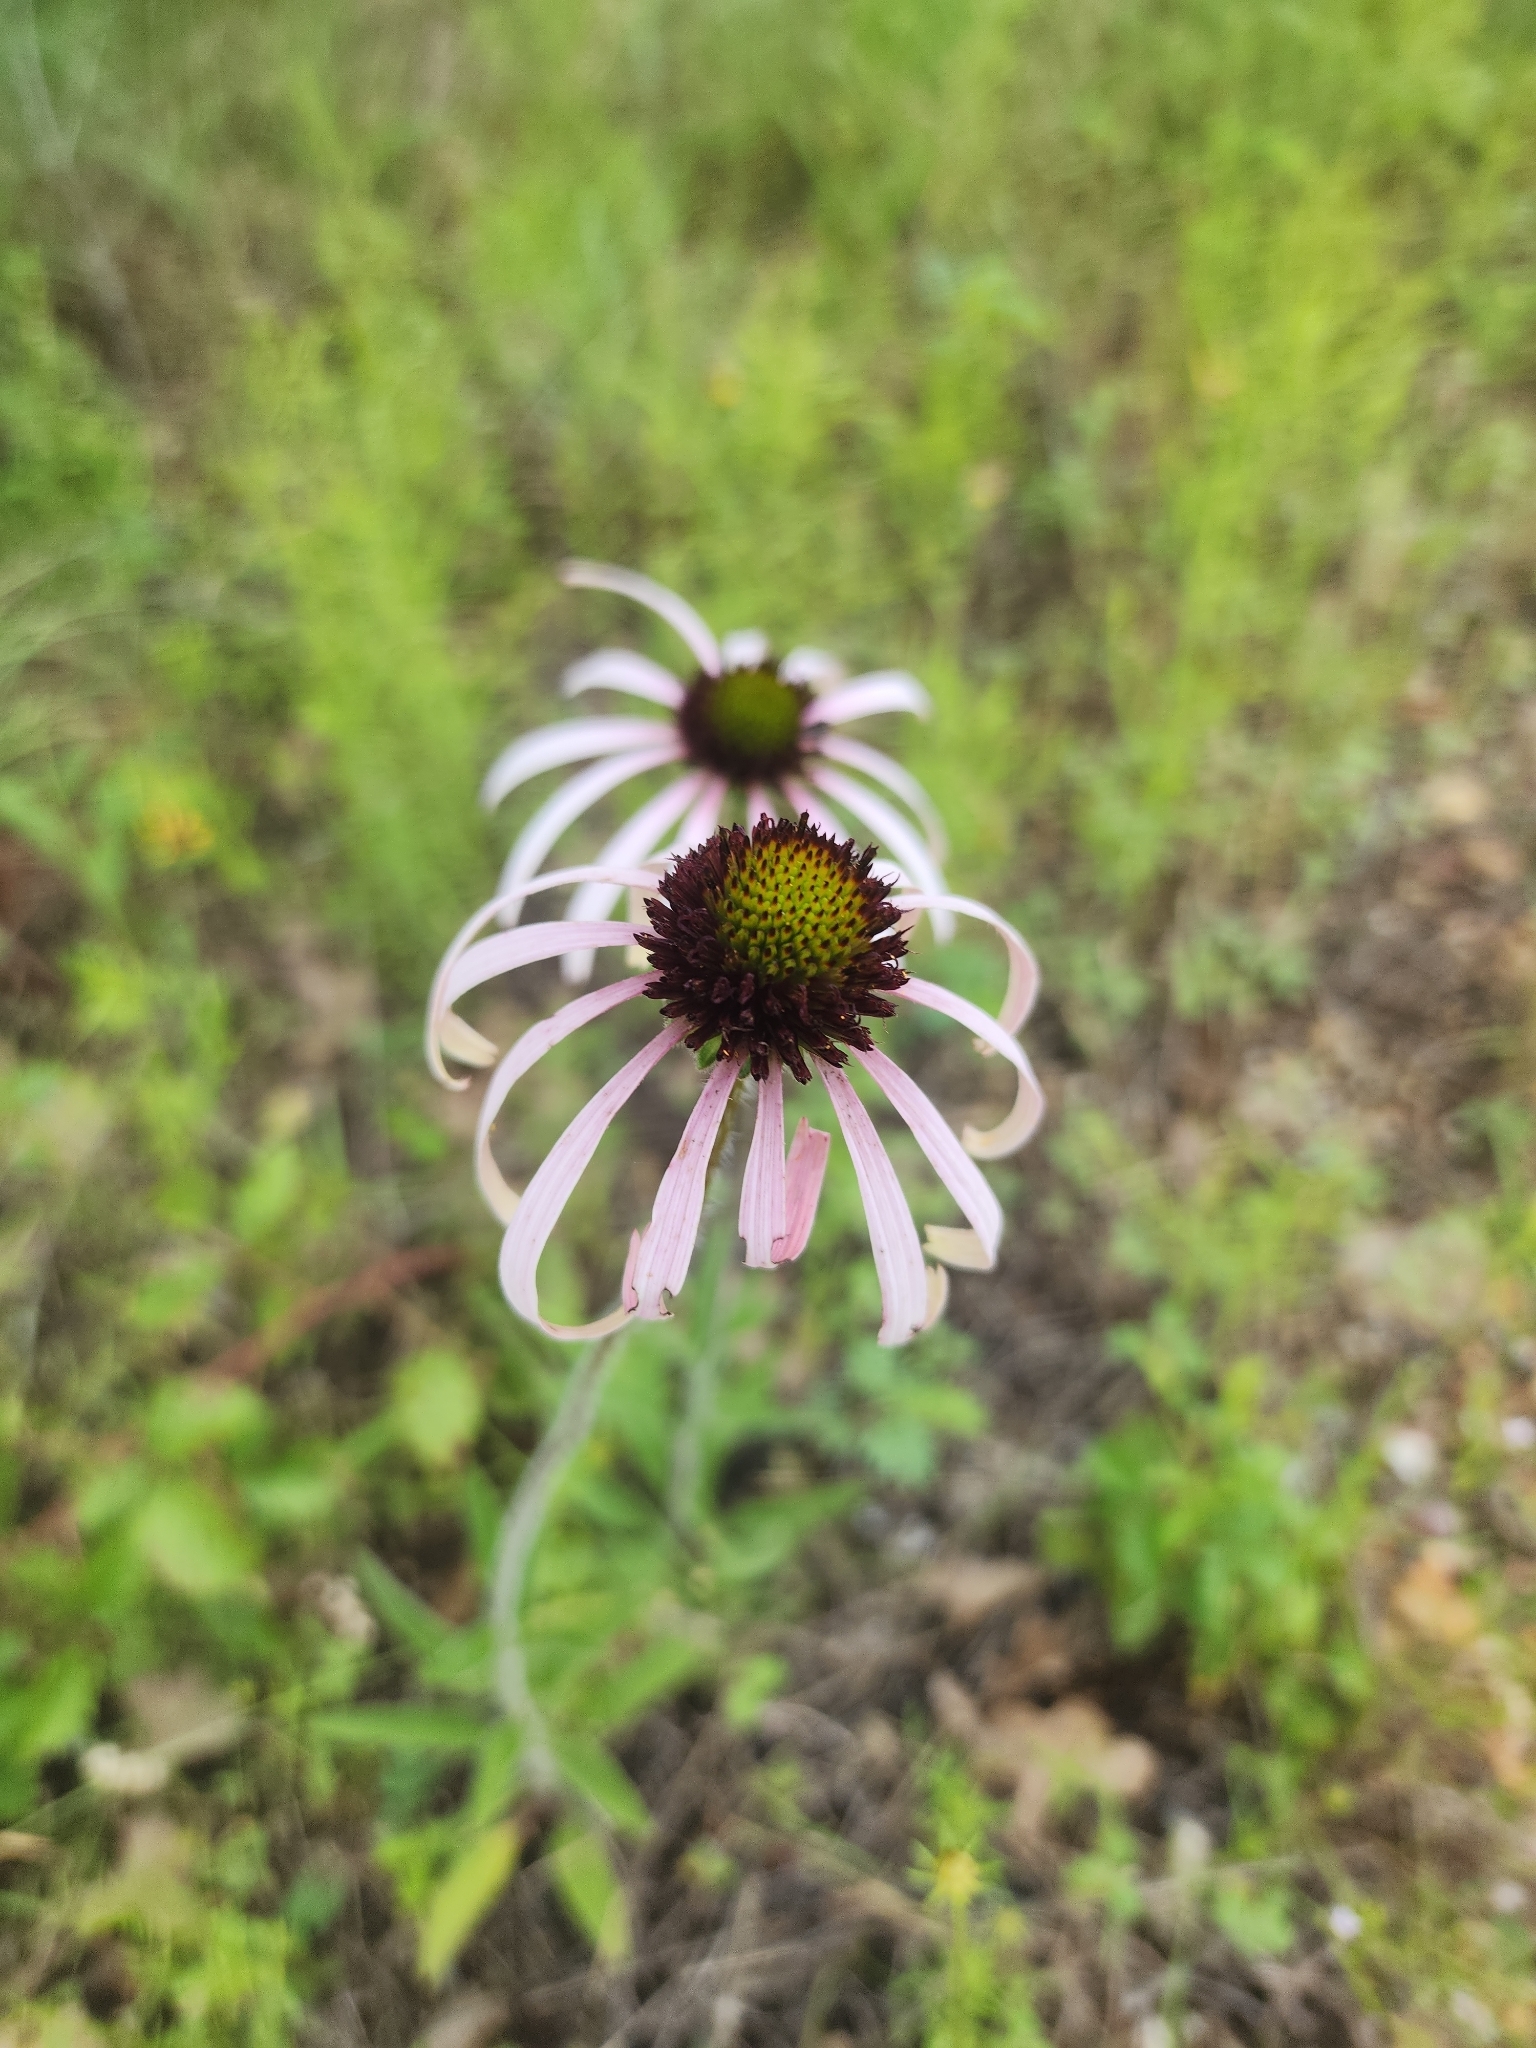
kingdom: Plantae
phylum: Tracheophyta
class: Magnoliopsida
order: Asterales
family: Asteraceae
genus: Echinacea
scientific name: Echinacea sanguinea
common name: Sanguine purple-coneflower
